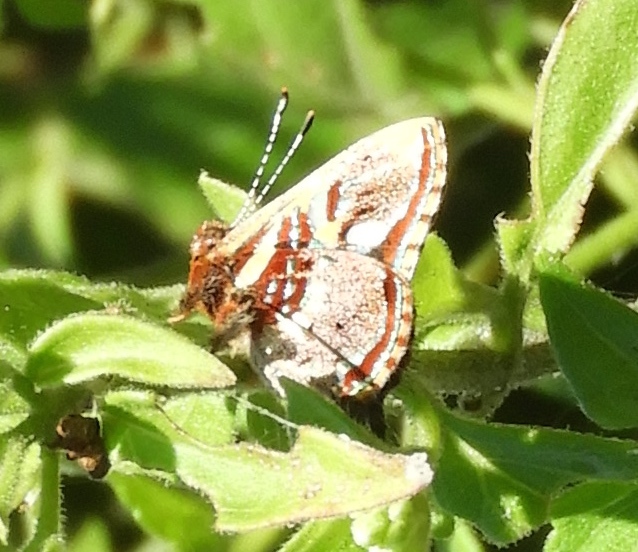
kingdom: Animalia
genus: Anteros
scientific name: Anteros carausius
